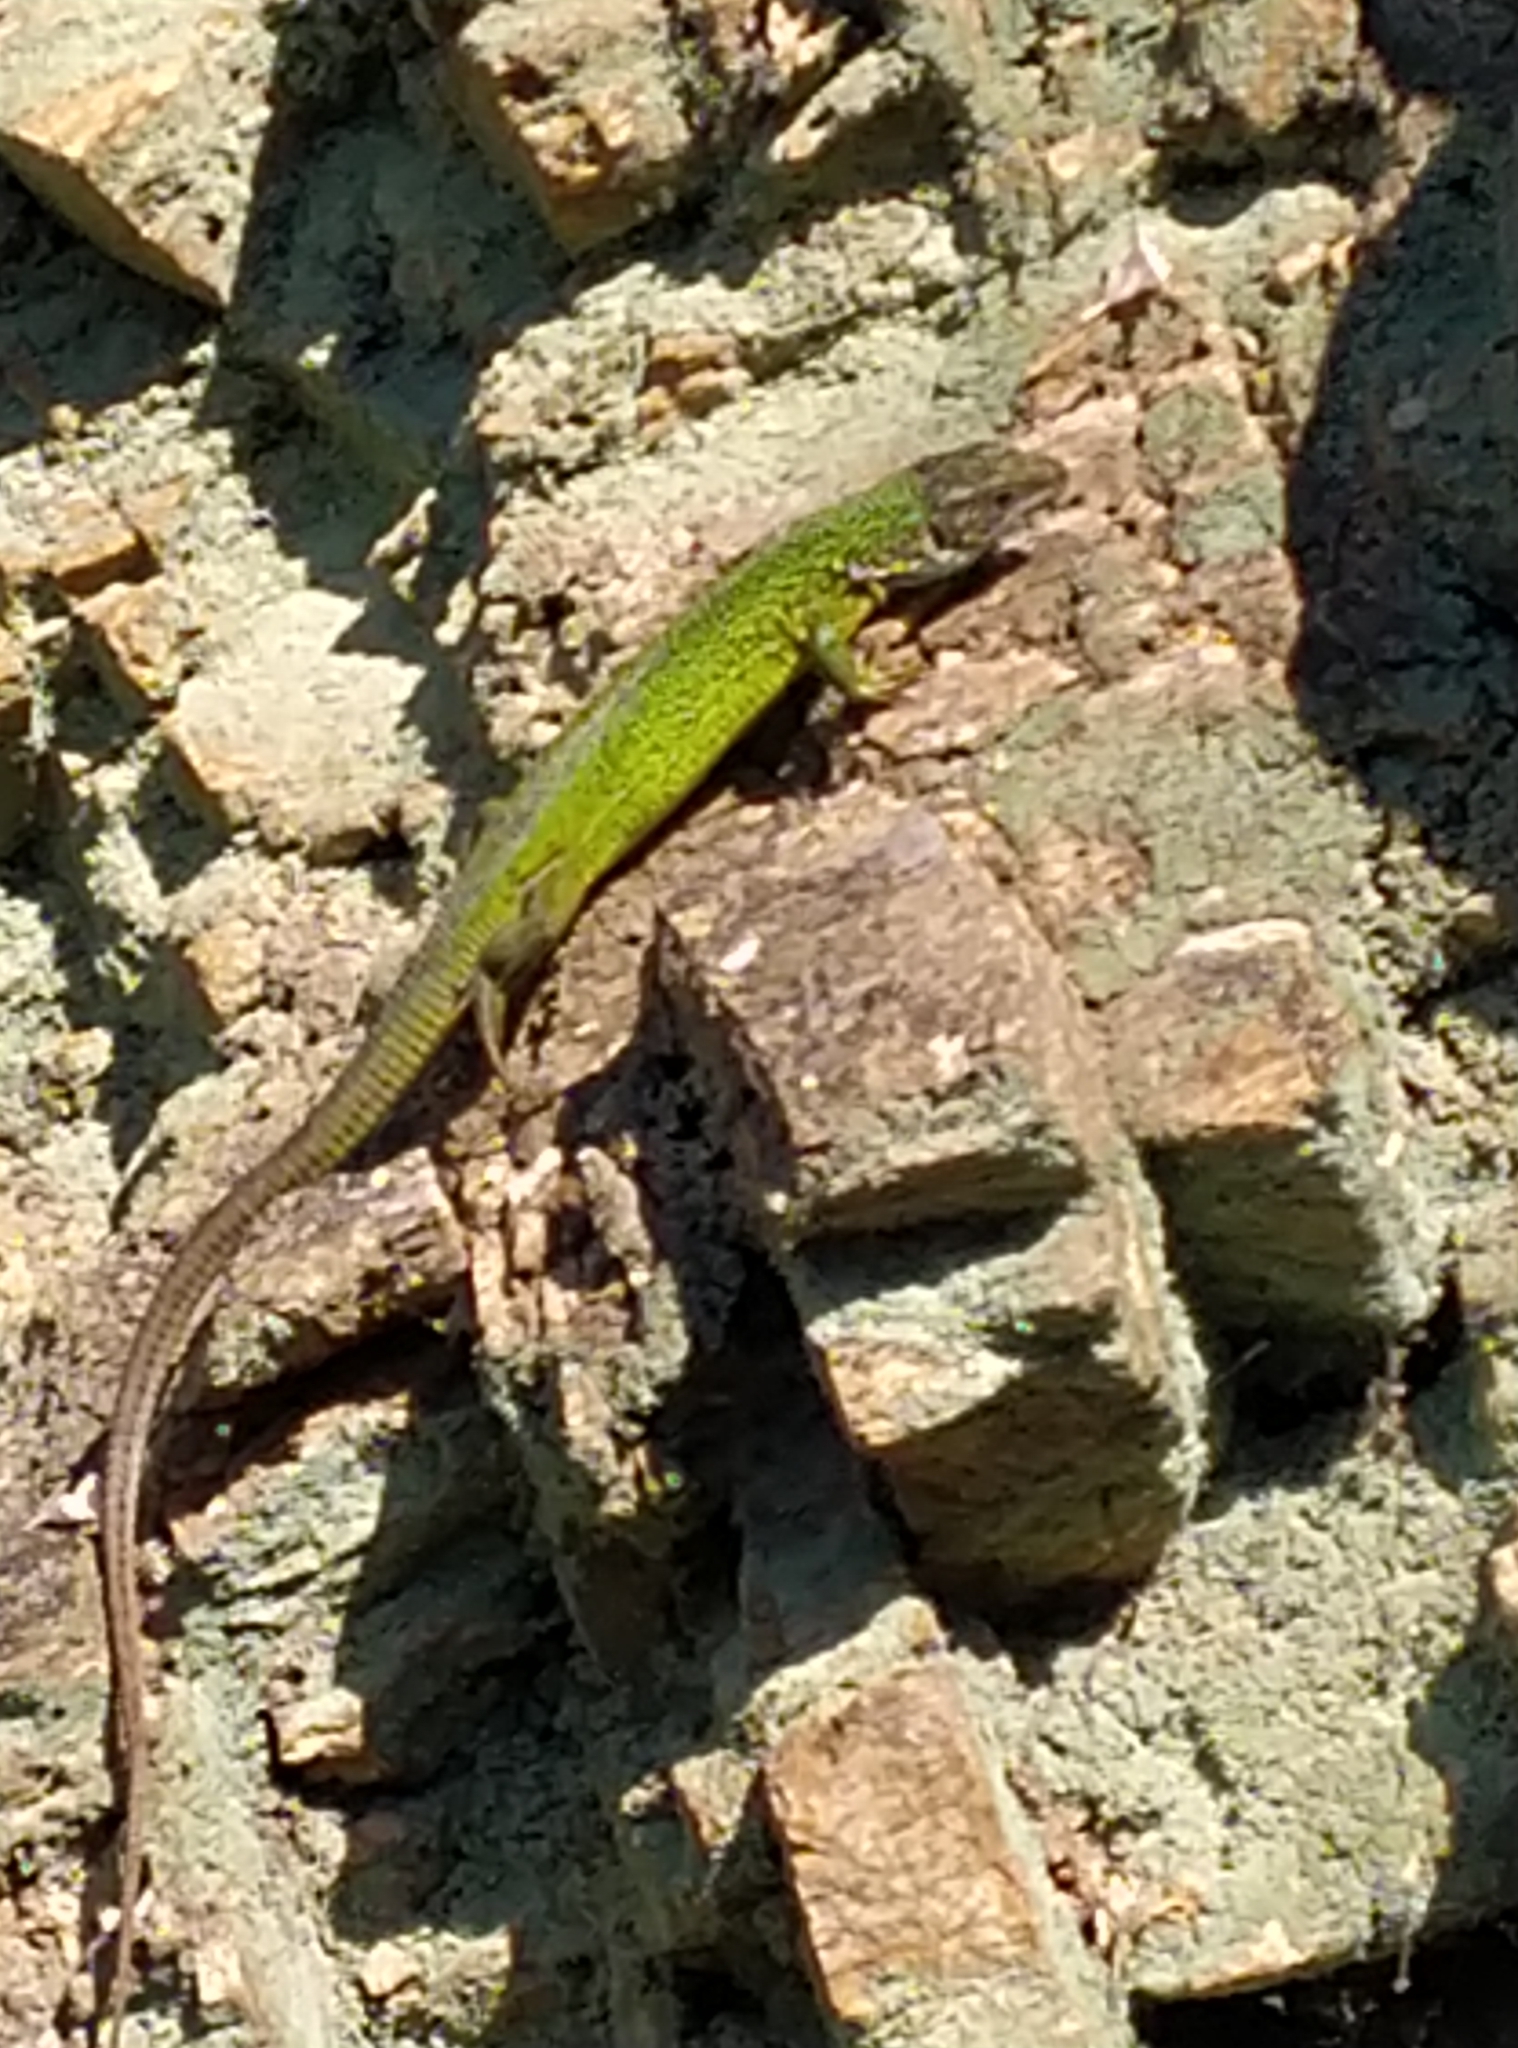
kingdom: Animalia
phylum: Chordata
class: Squamata
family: Lacertidae
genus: Lacerta
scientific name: Lacerta viridis
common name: European green lizard
